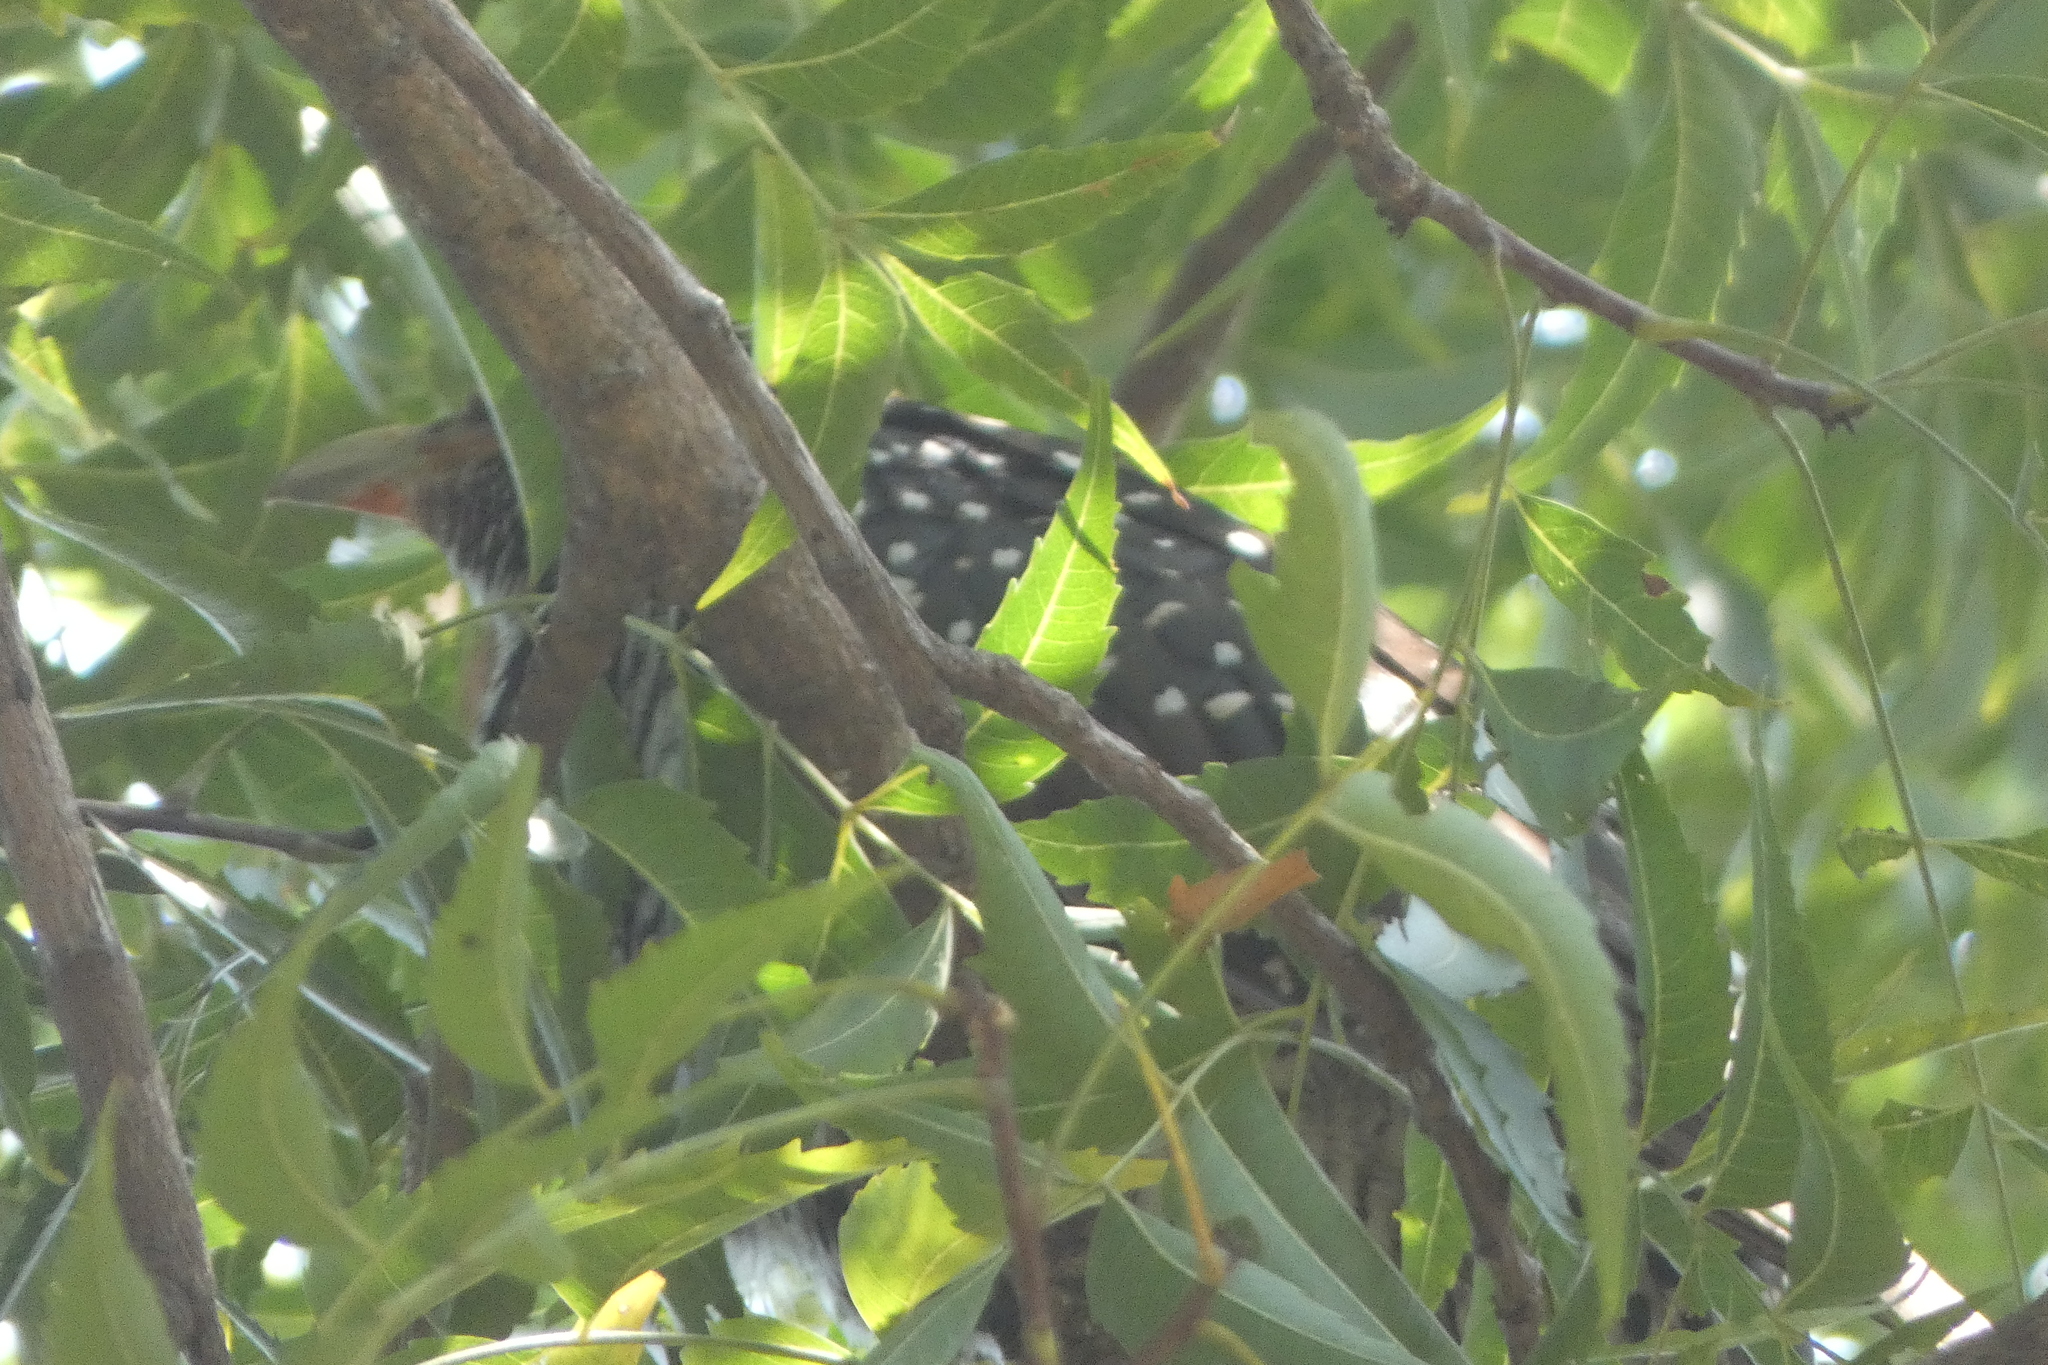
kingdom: Animalia
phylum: Chordata
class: Aves
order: Cuculiformes
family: Cuculidae
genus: Eudynamys
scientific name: Eudynamys scolopaceus
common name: Asian koel
